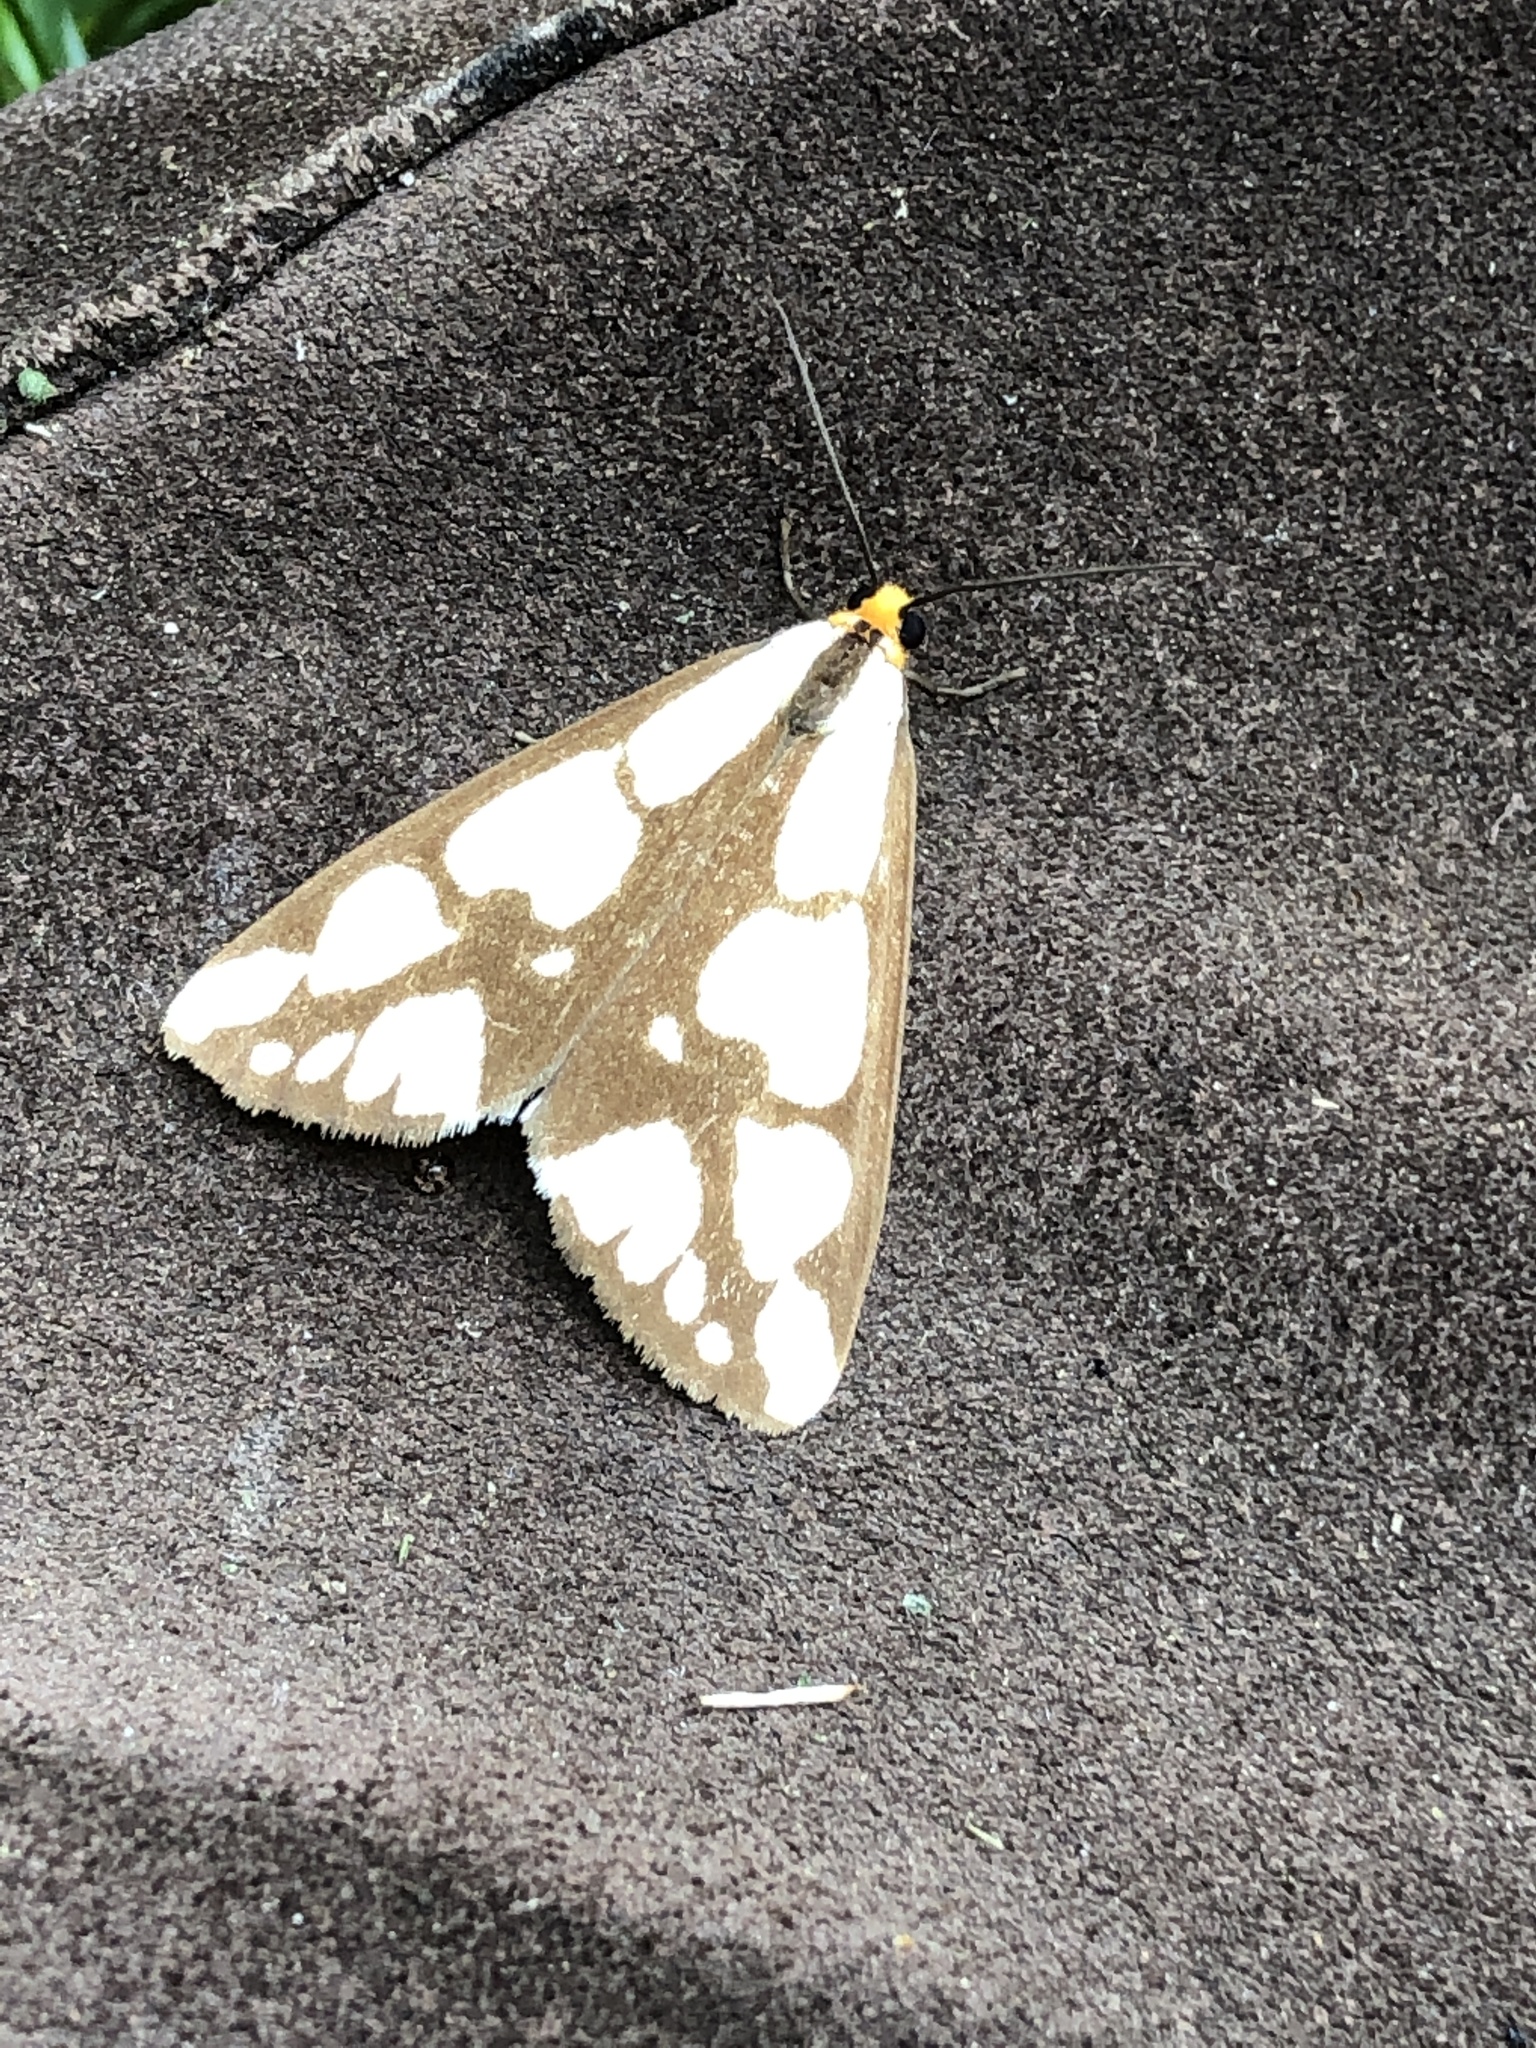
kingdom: Animalia
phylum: Arthropoda
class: Insecta
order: Lepidoptera
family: Erebidae
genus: Haploa
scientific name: Haploa confusa
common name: Confused haploa moth
